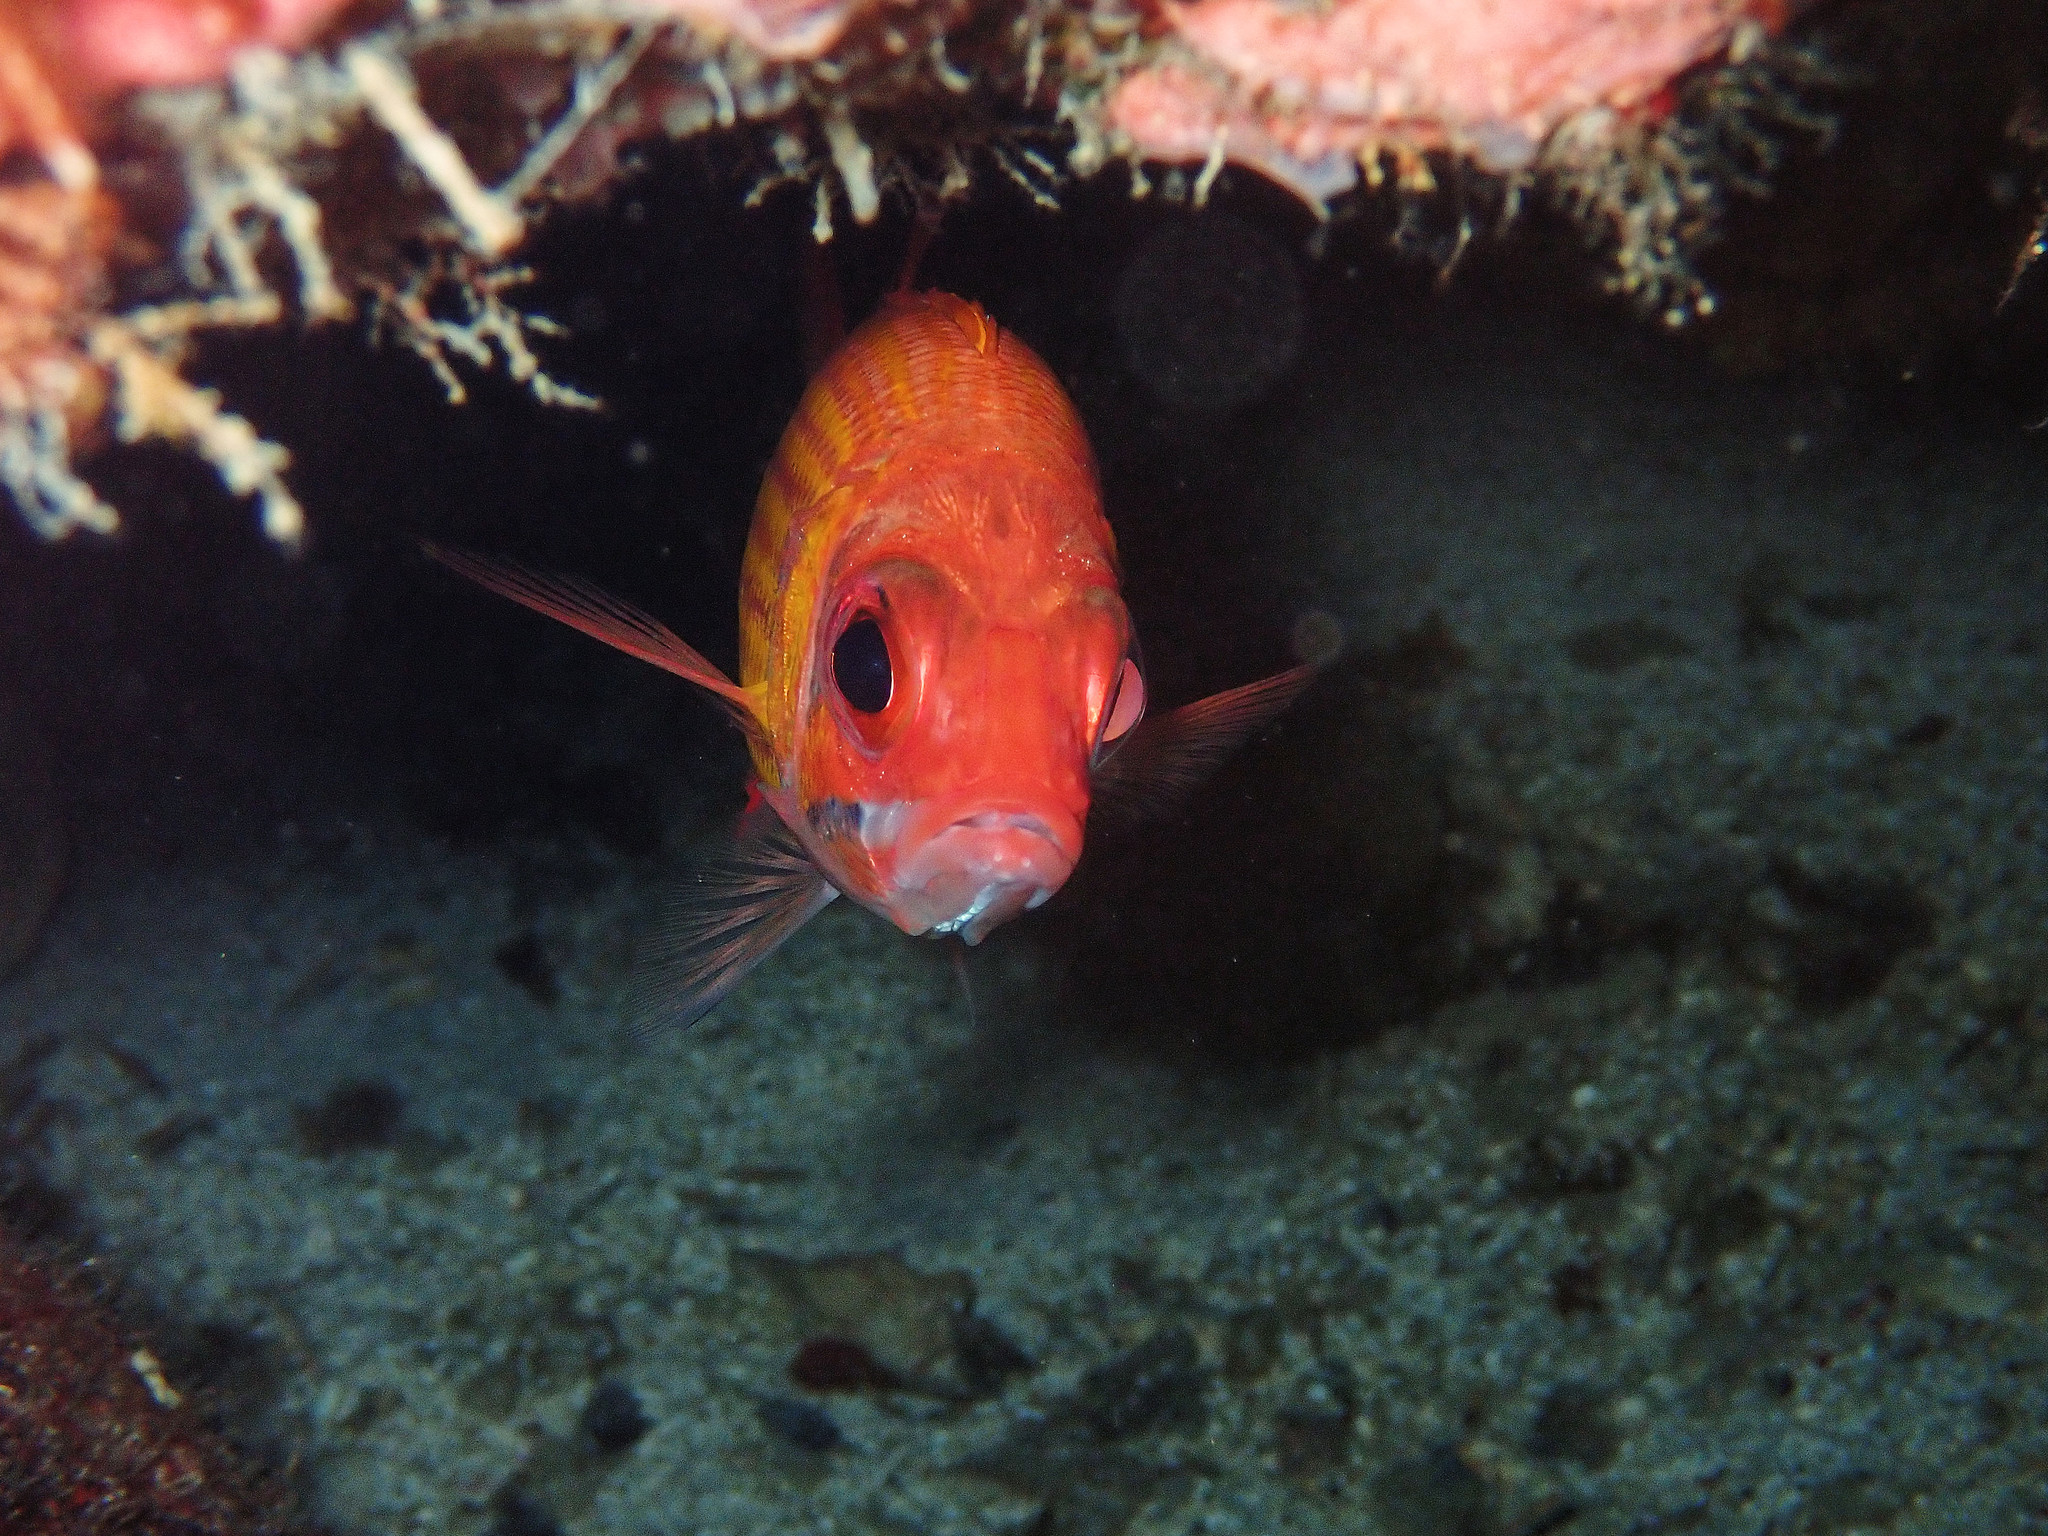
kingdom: Animalia
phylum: Chordata
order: Beryciformes
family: Holocentridae
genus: Neoniphon
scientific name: Neoniphon marianus
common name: Longjaw squirrelfish
